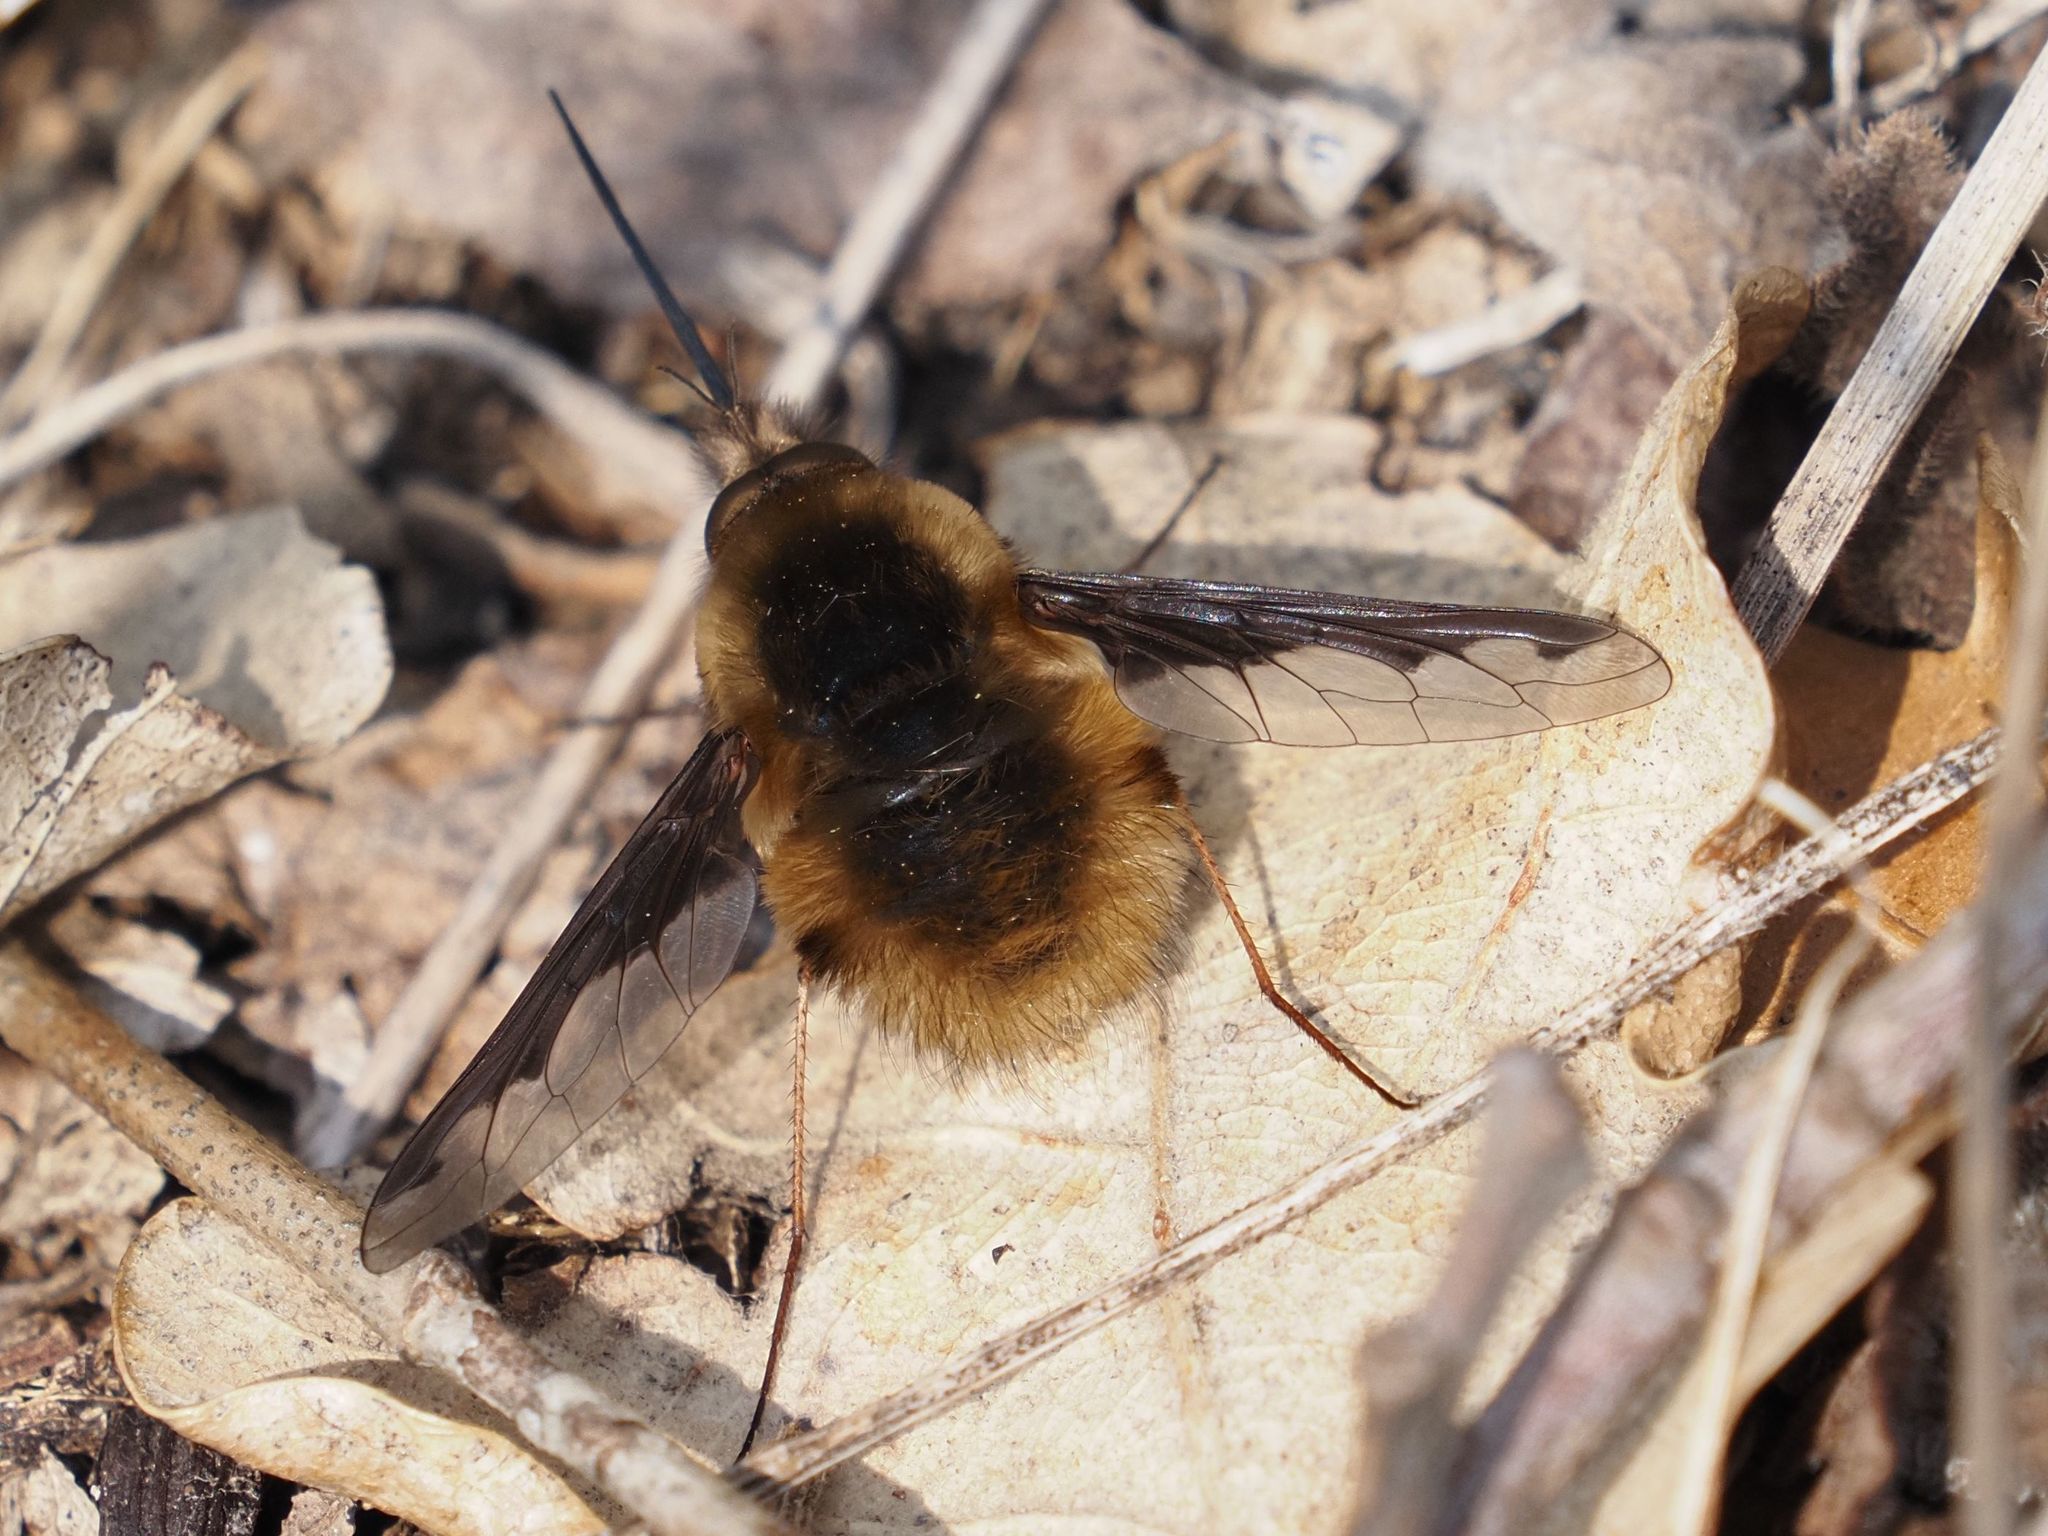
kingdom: Animalia
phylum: Arthropoda
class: Insecta
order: Diptera
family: Bombyliidae
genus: Bombylius
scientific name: Bombylius major
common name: Bee fly
